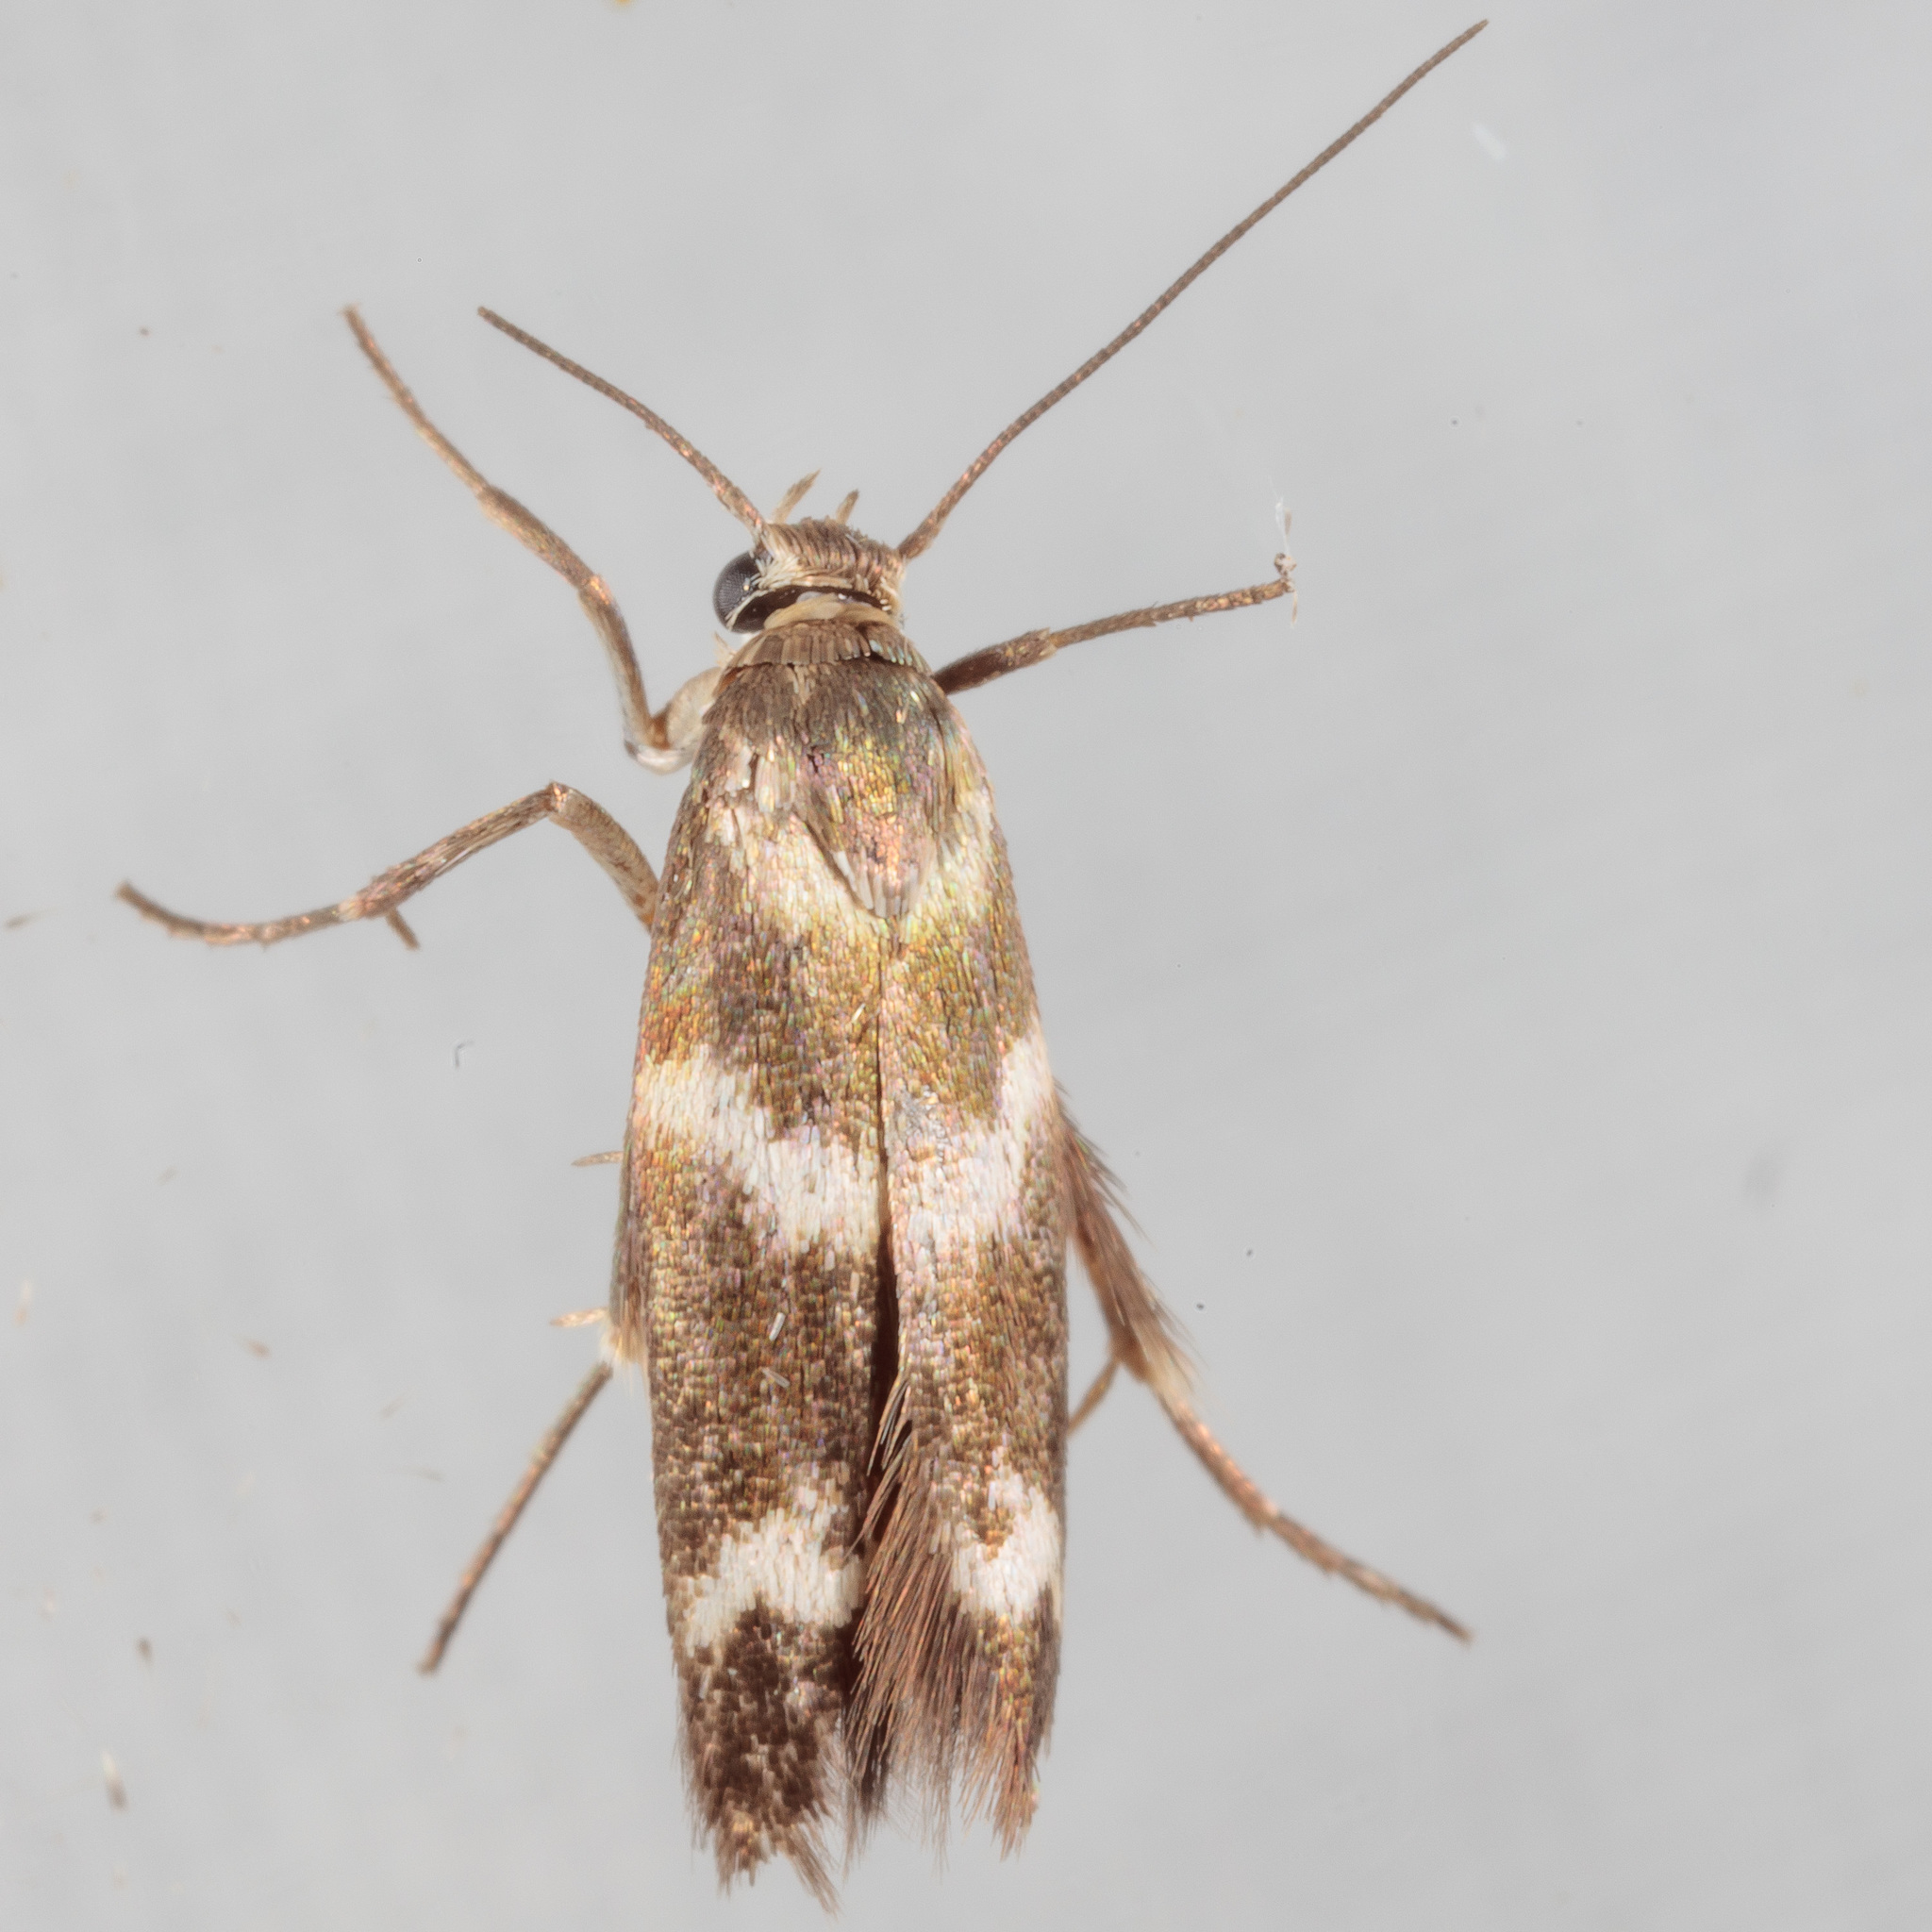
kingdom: Animalia
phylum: Arthropoda
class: Insecta
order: Lepidoptera
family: Scythrididae
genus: Scythris
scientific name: Scythris trivinctella
